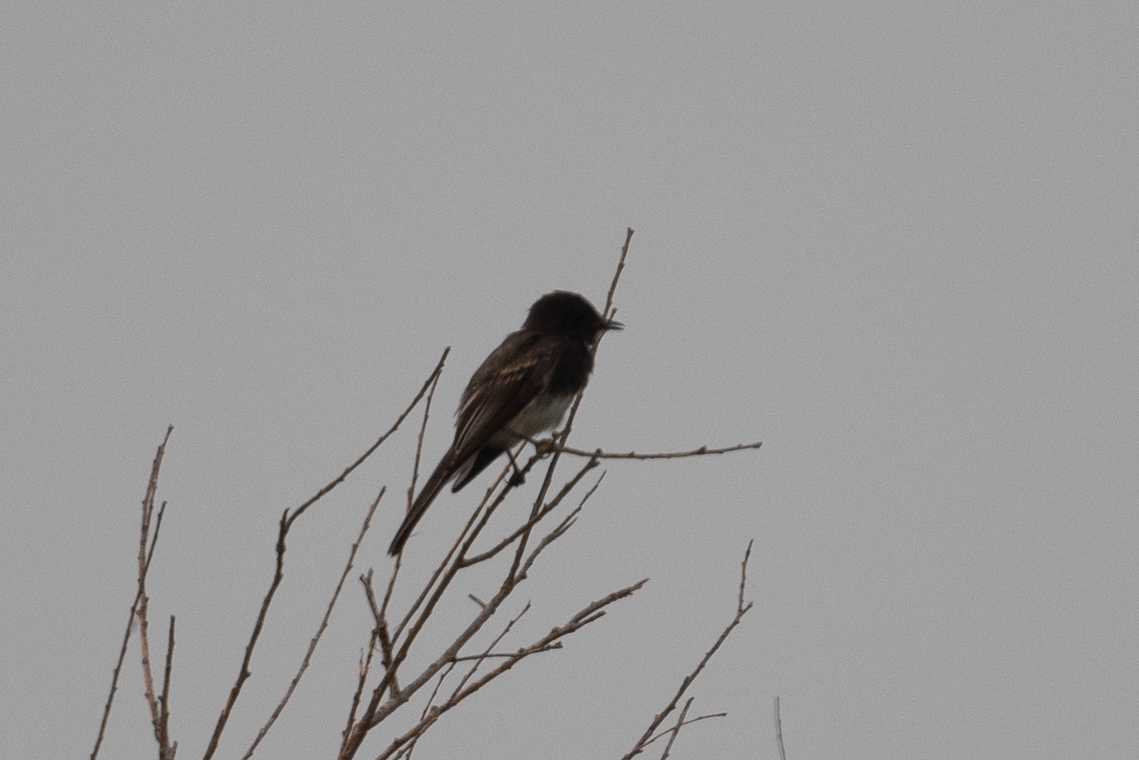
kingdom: Animalia
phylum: Chordata
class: Aves
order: Passeriformes
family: Tyrannidae
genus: Sayornis
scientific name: Sayornis nigricans
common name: Black phoebe
